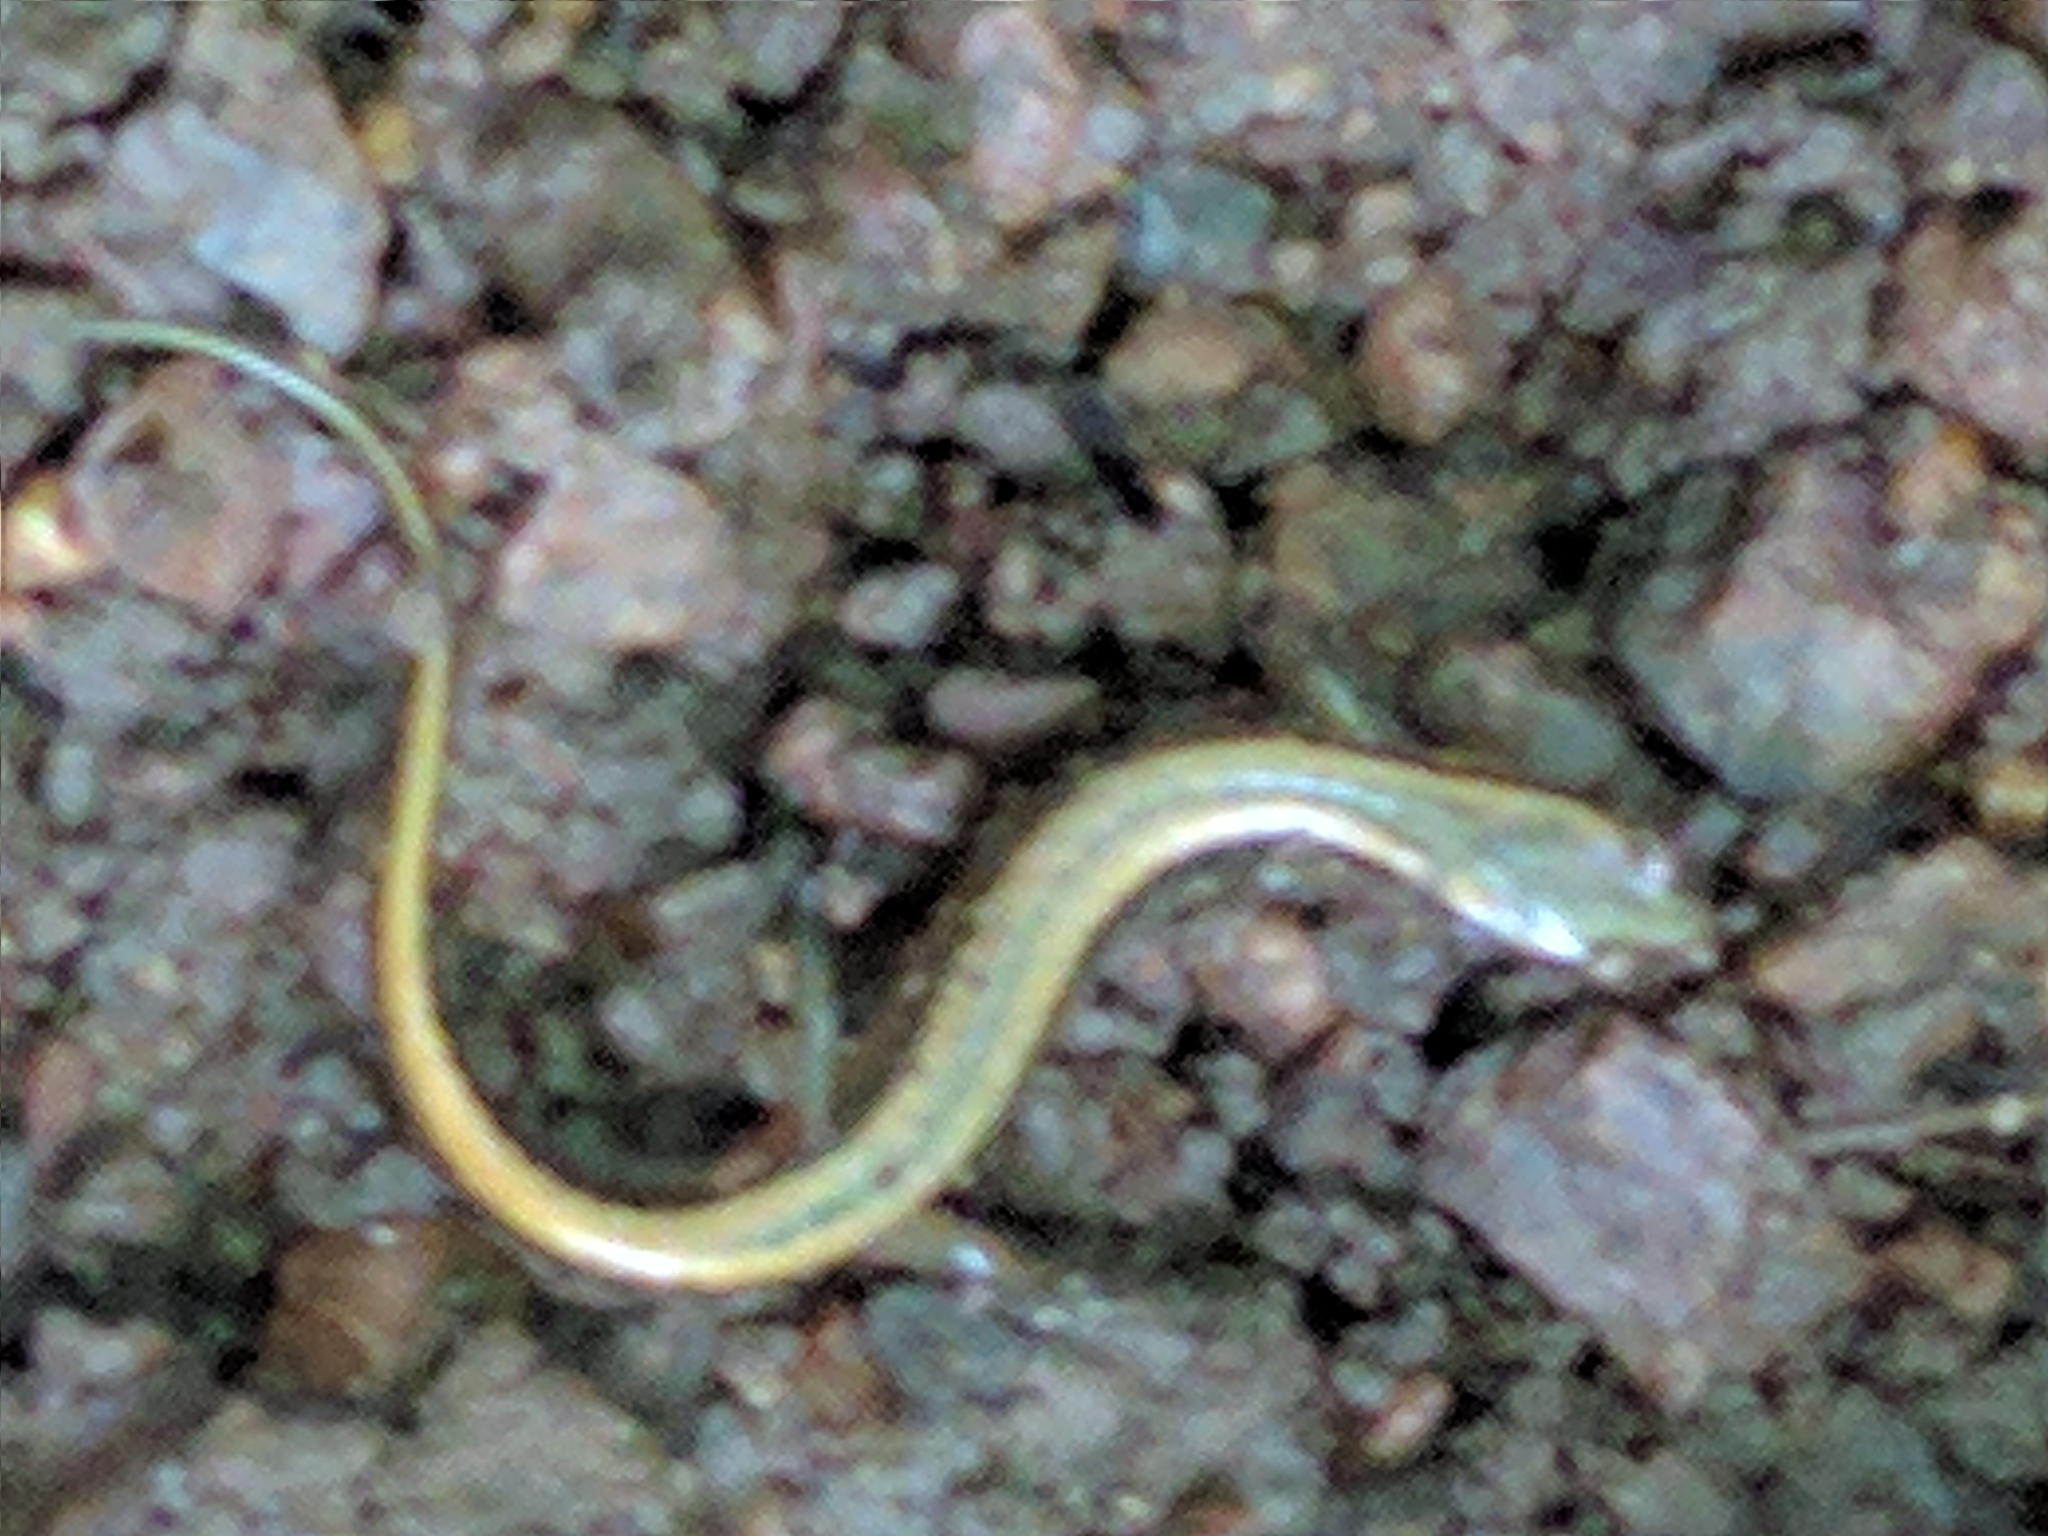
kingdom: Animalia
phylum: Chordata
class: Amphibia
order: Caudata
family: Plethodontidae
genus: Eurycea
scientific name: Eurycea bislineata
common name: Northern two-lined salamander
